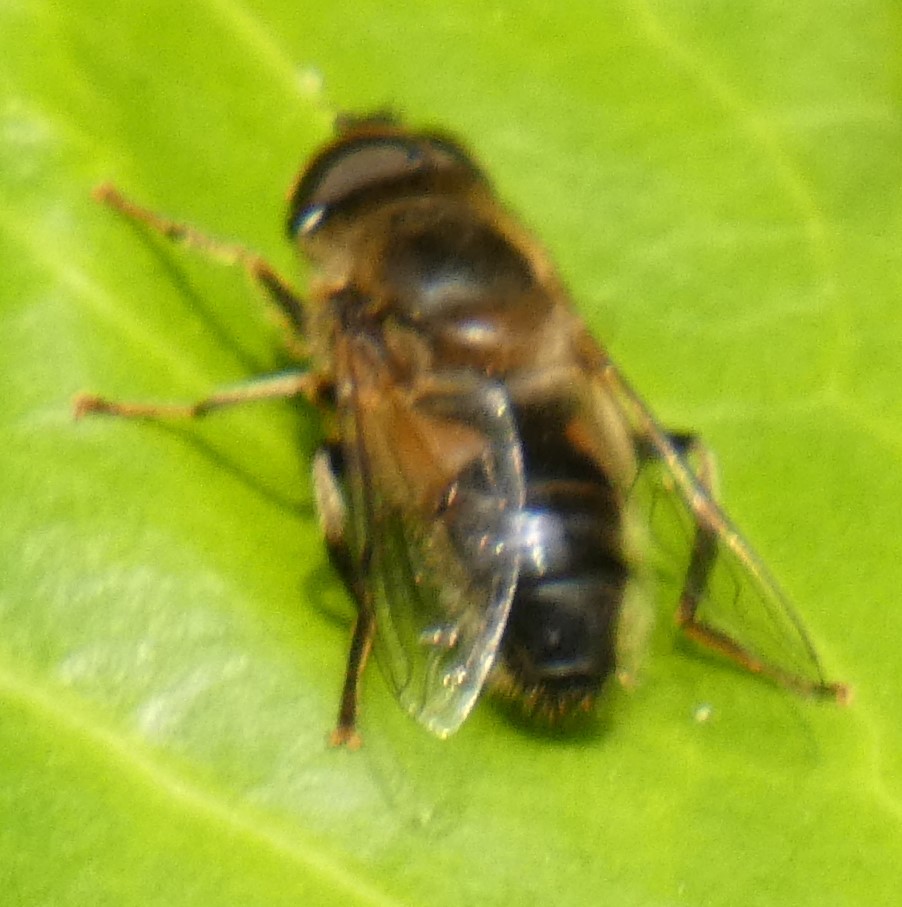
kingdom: Animalia
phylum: Arthropoda
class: Insecta
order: Diptera
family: Syrphidae
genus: Eristalis
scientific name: Eristalis pertinax
